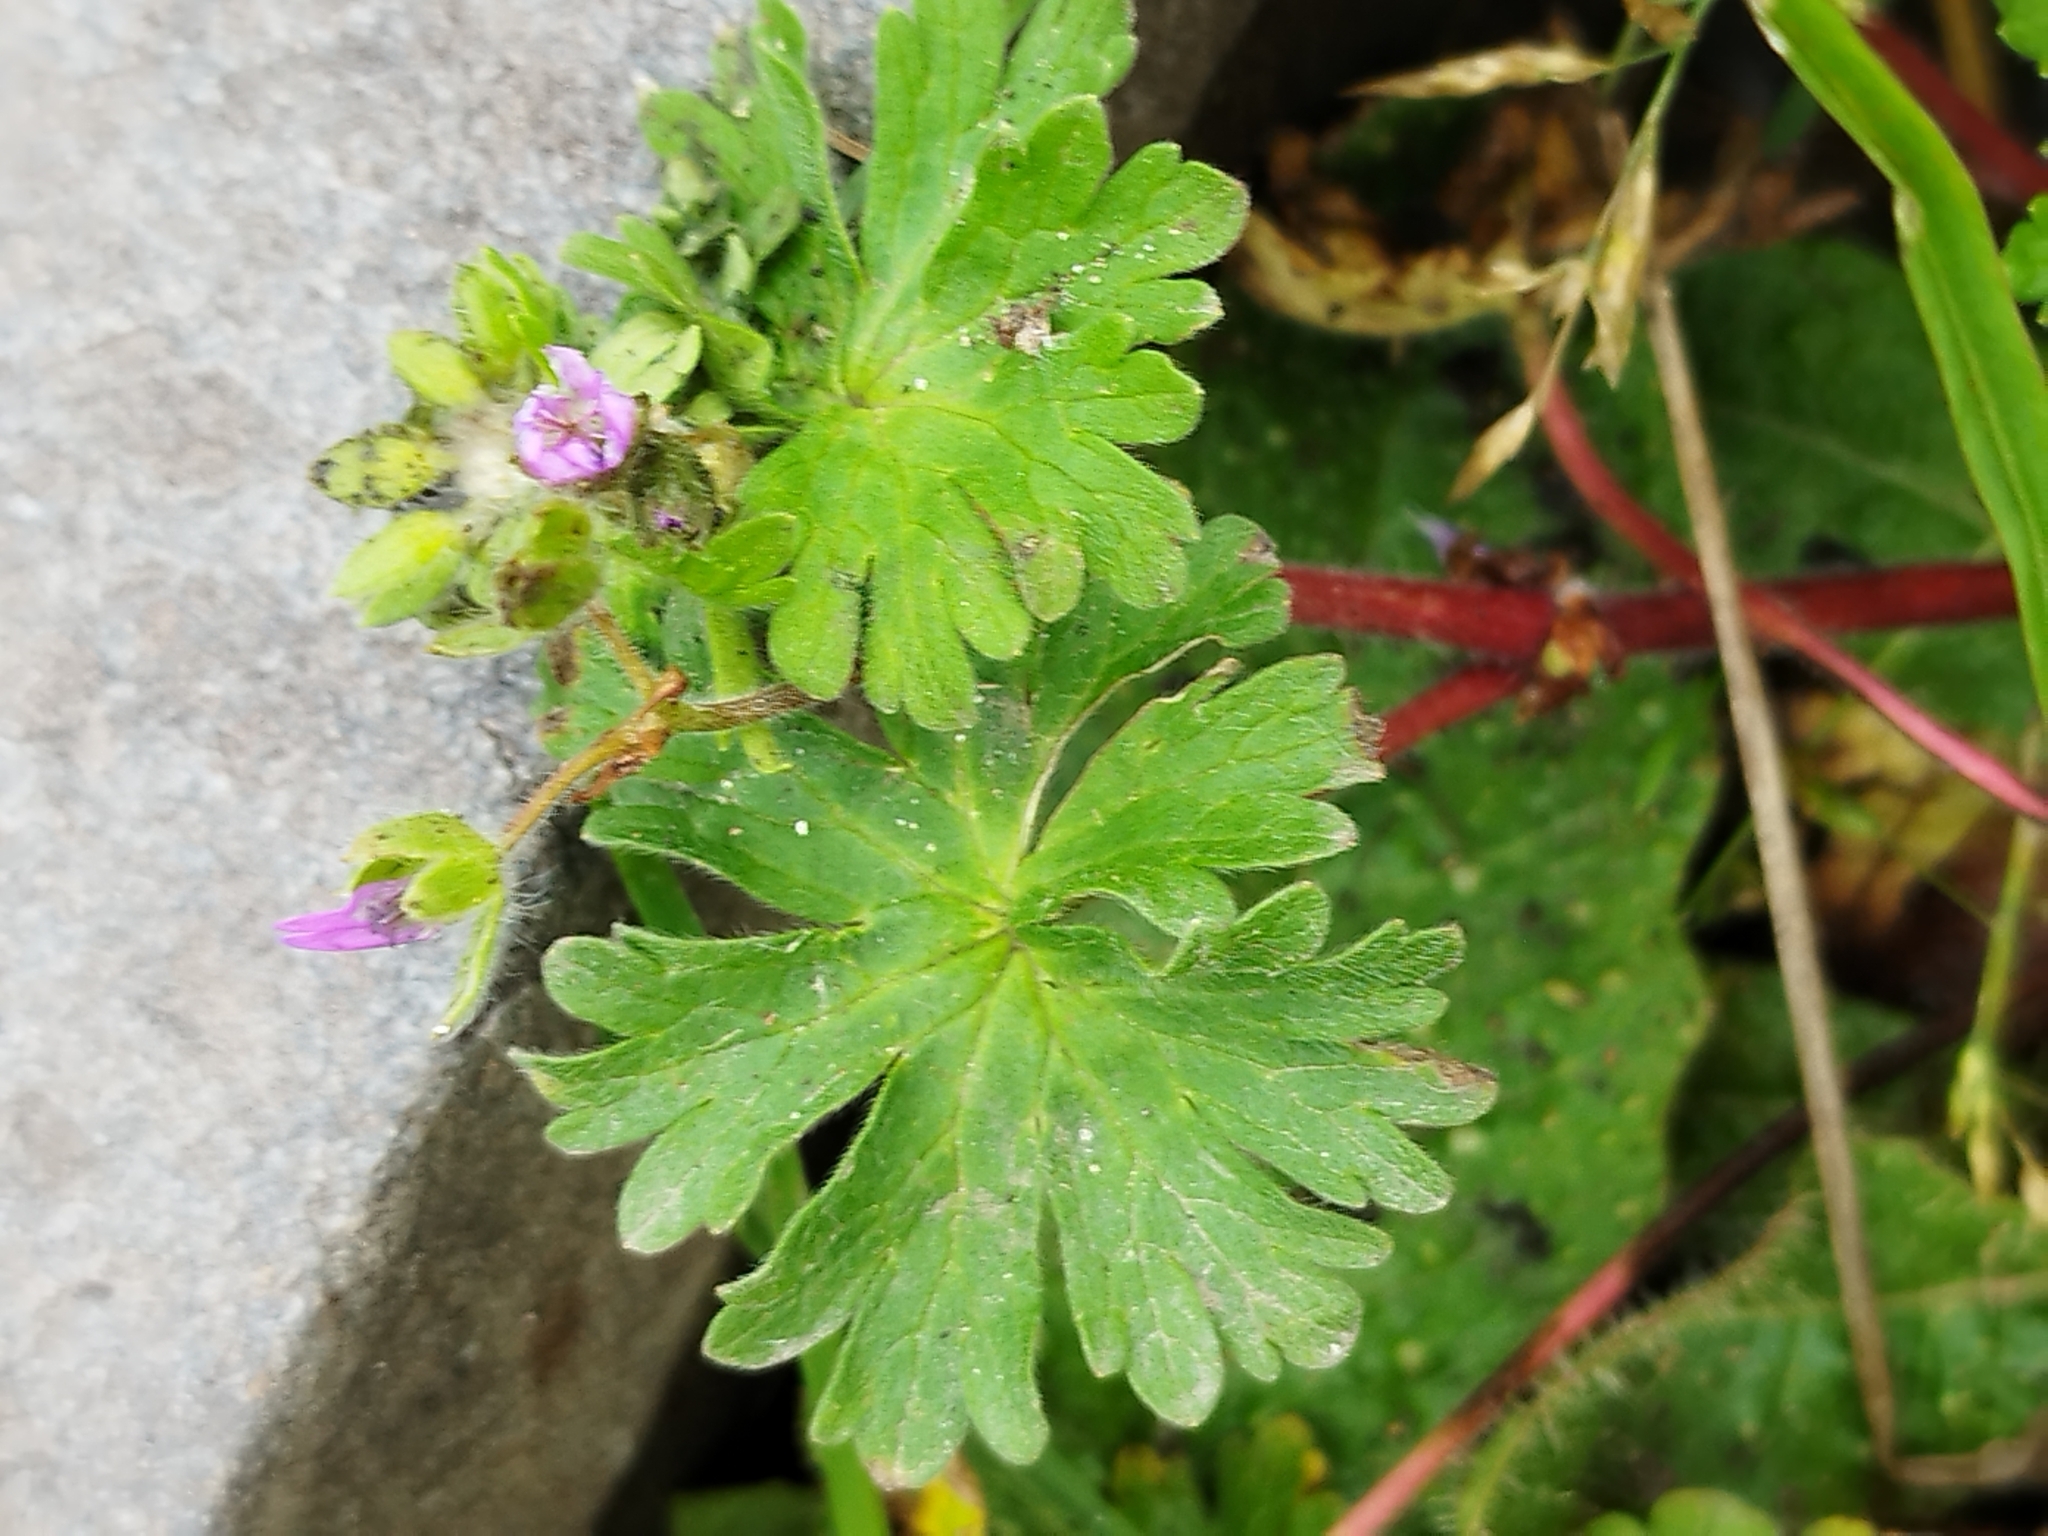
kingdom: Plantae
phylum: Tracheophyta
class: Magnoliopsida
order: Geraniales
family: Geraniaceae
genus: Geranium
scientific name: Geranium molle
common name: Dove's-foot crane's-bill
